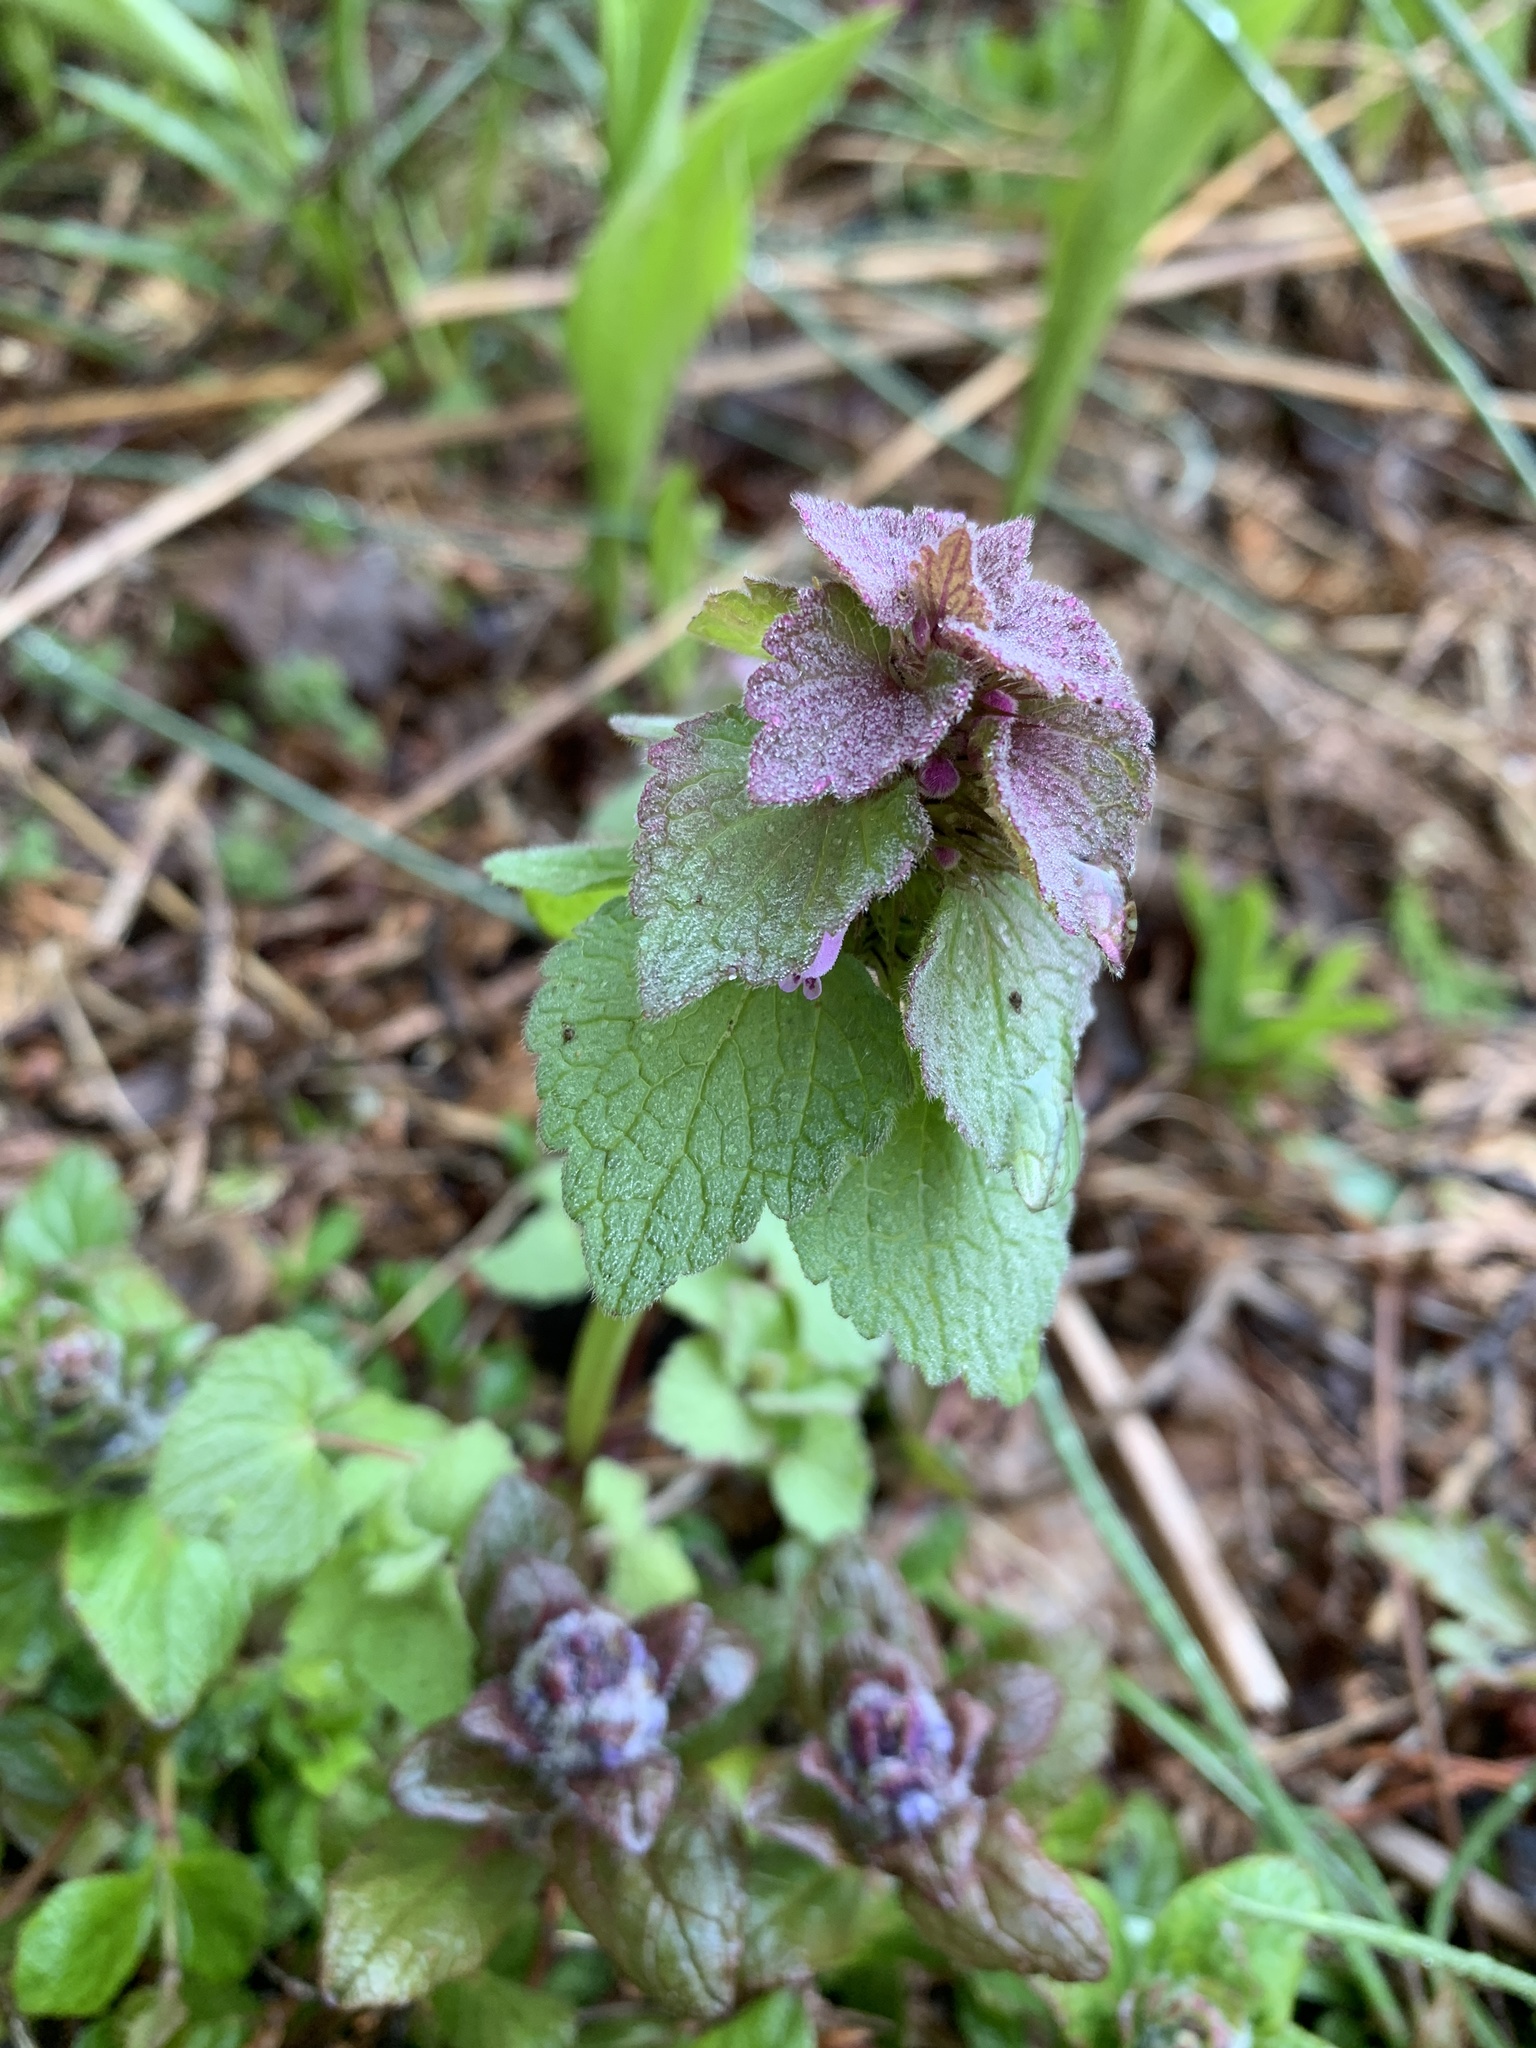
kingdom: Plantae
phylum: Tracheophyta
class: Magnoliopsida
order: Lamiales
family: Lamiaceae
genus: Lamium
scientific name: Lamium purpureum
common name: Red dead-nettle
